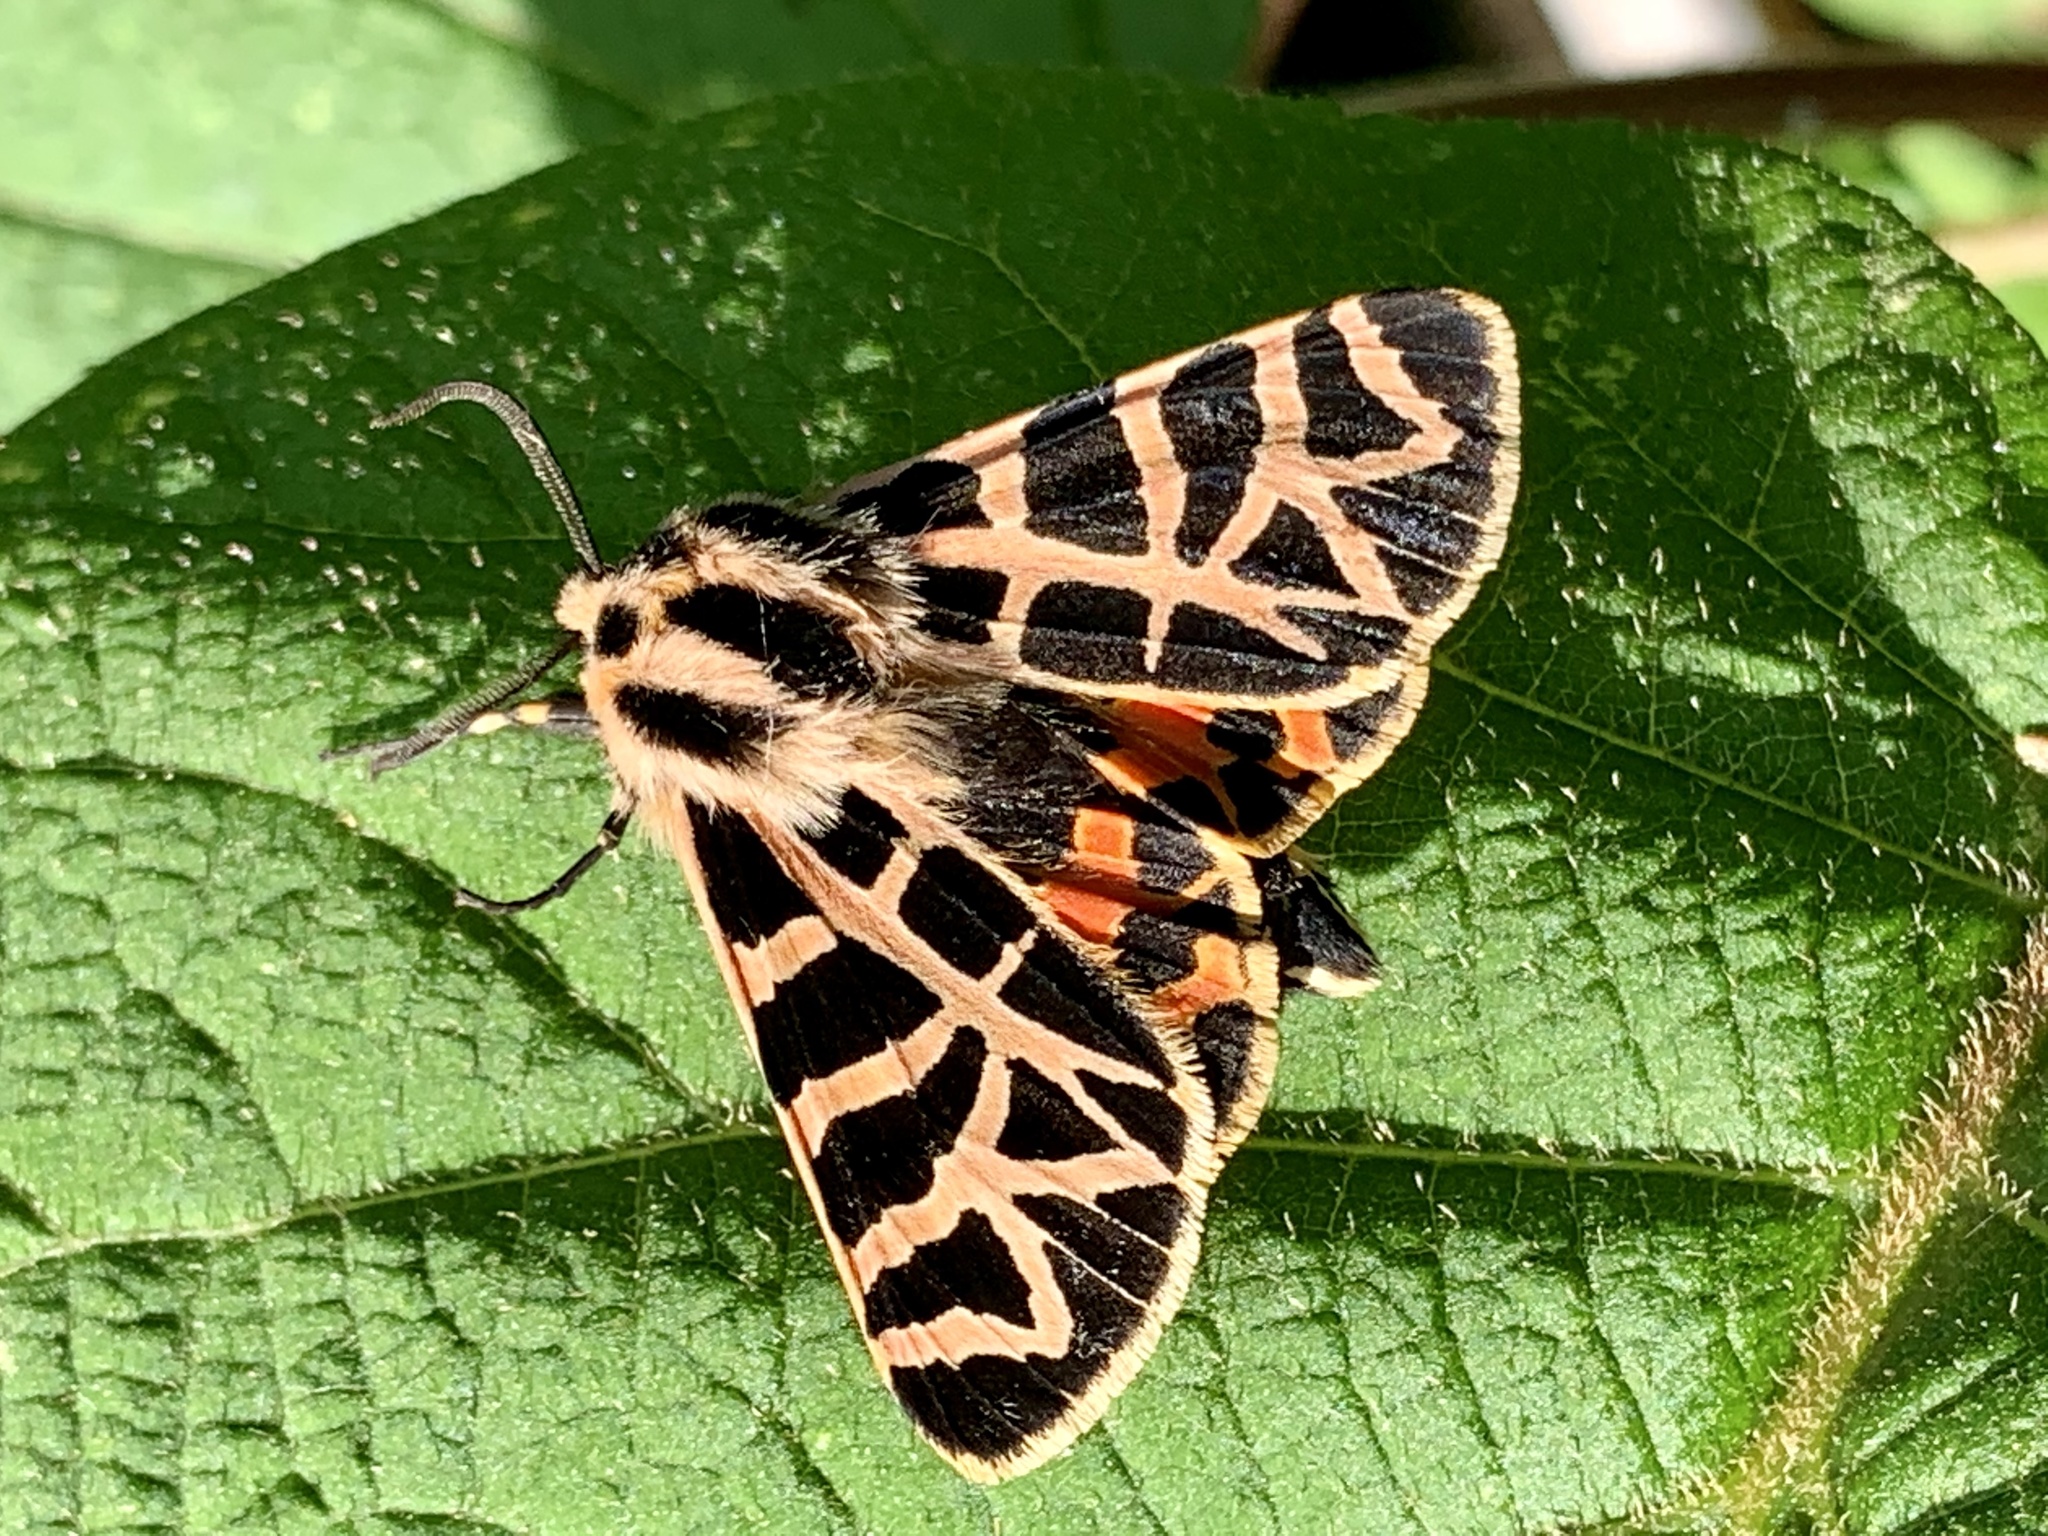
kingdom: Animalia
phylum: Arthropoda
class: Insecta
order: Lepidoptera
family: Erebidae
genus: Apantesis
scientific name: Apantesis
